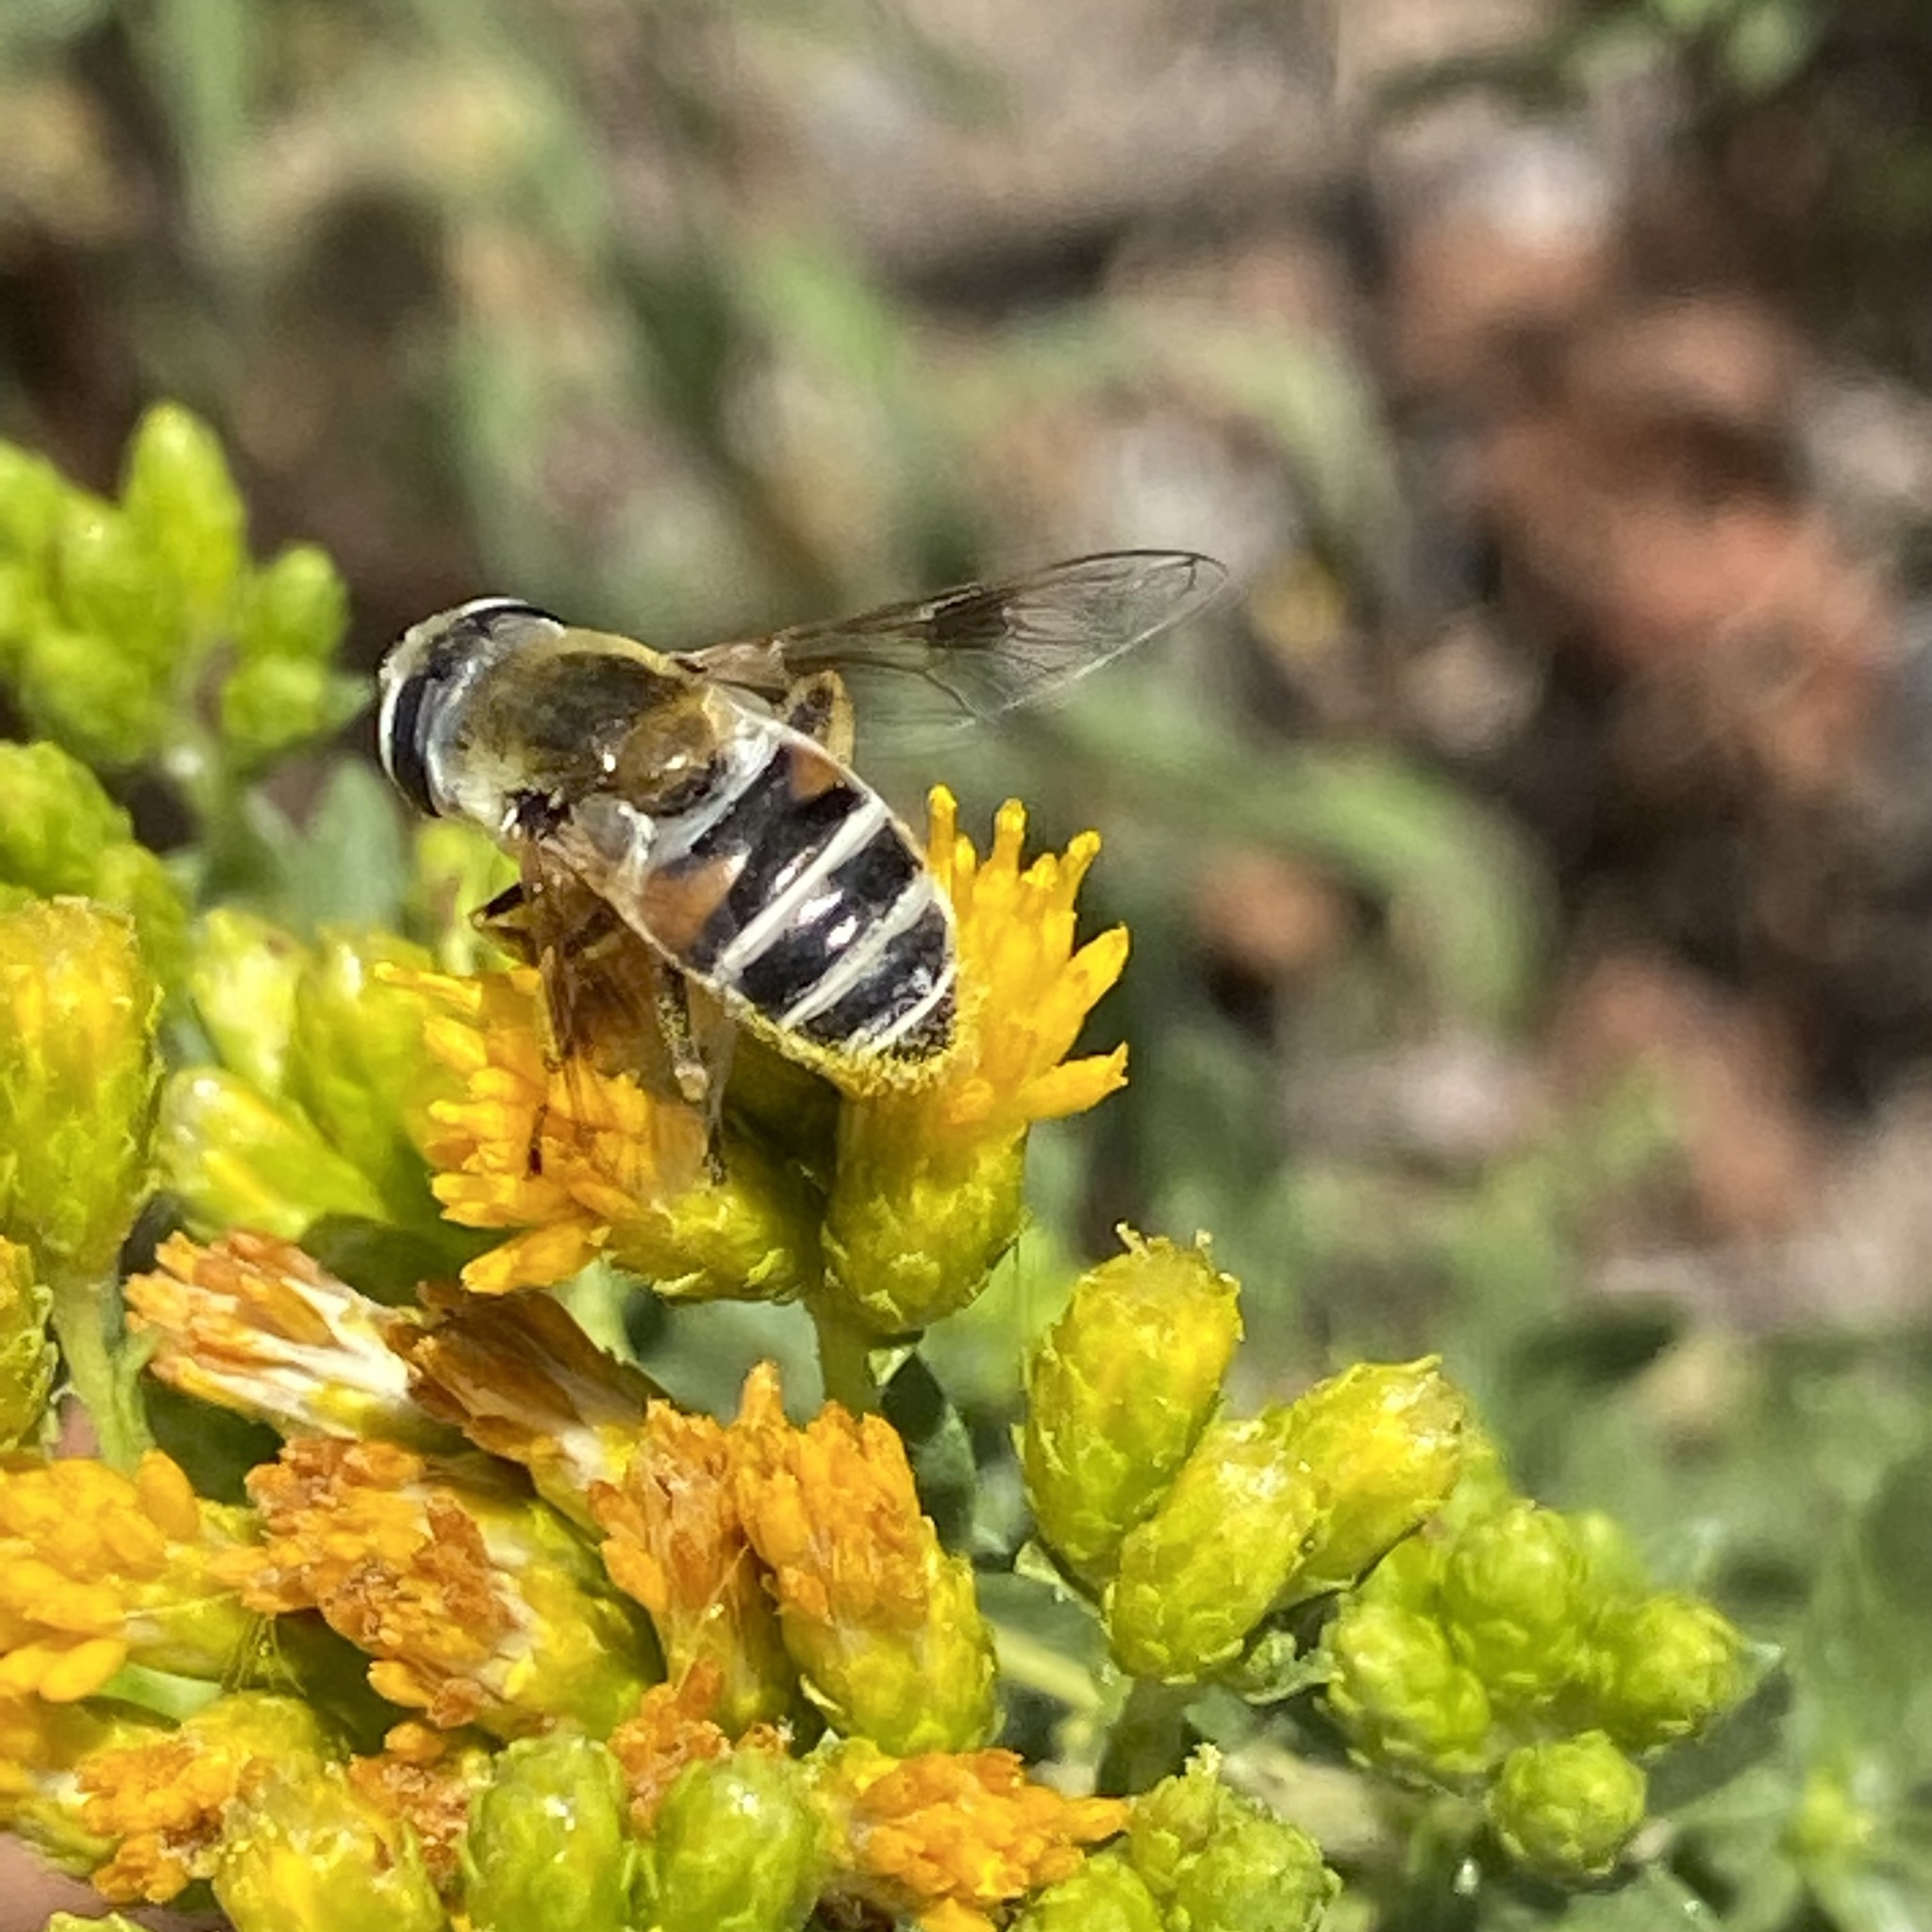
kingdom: Animalia
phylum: Arthropoda
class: Insecta
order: Diptera
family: Syrphidae
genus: Eristalis
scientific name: Eristalis stipator
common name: Yellow-shouldered drone fly
